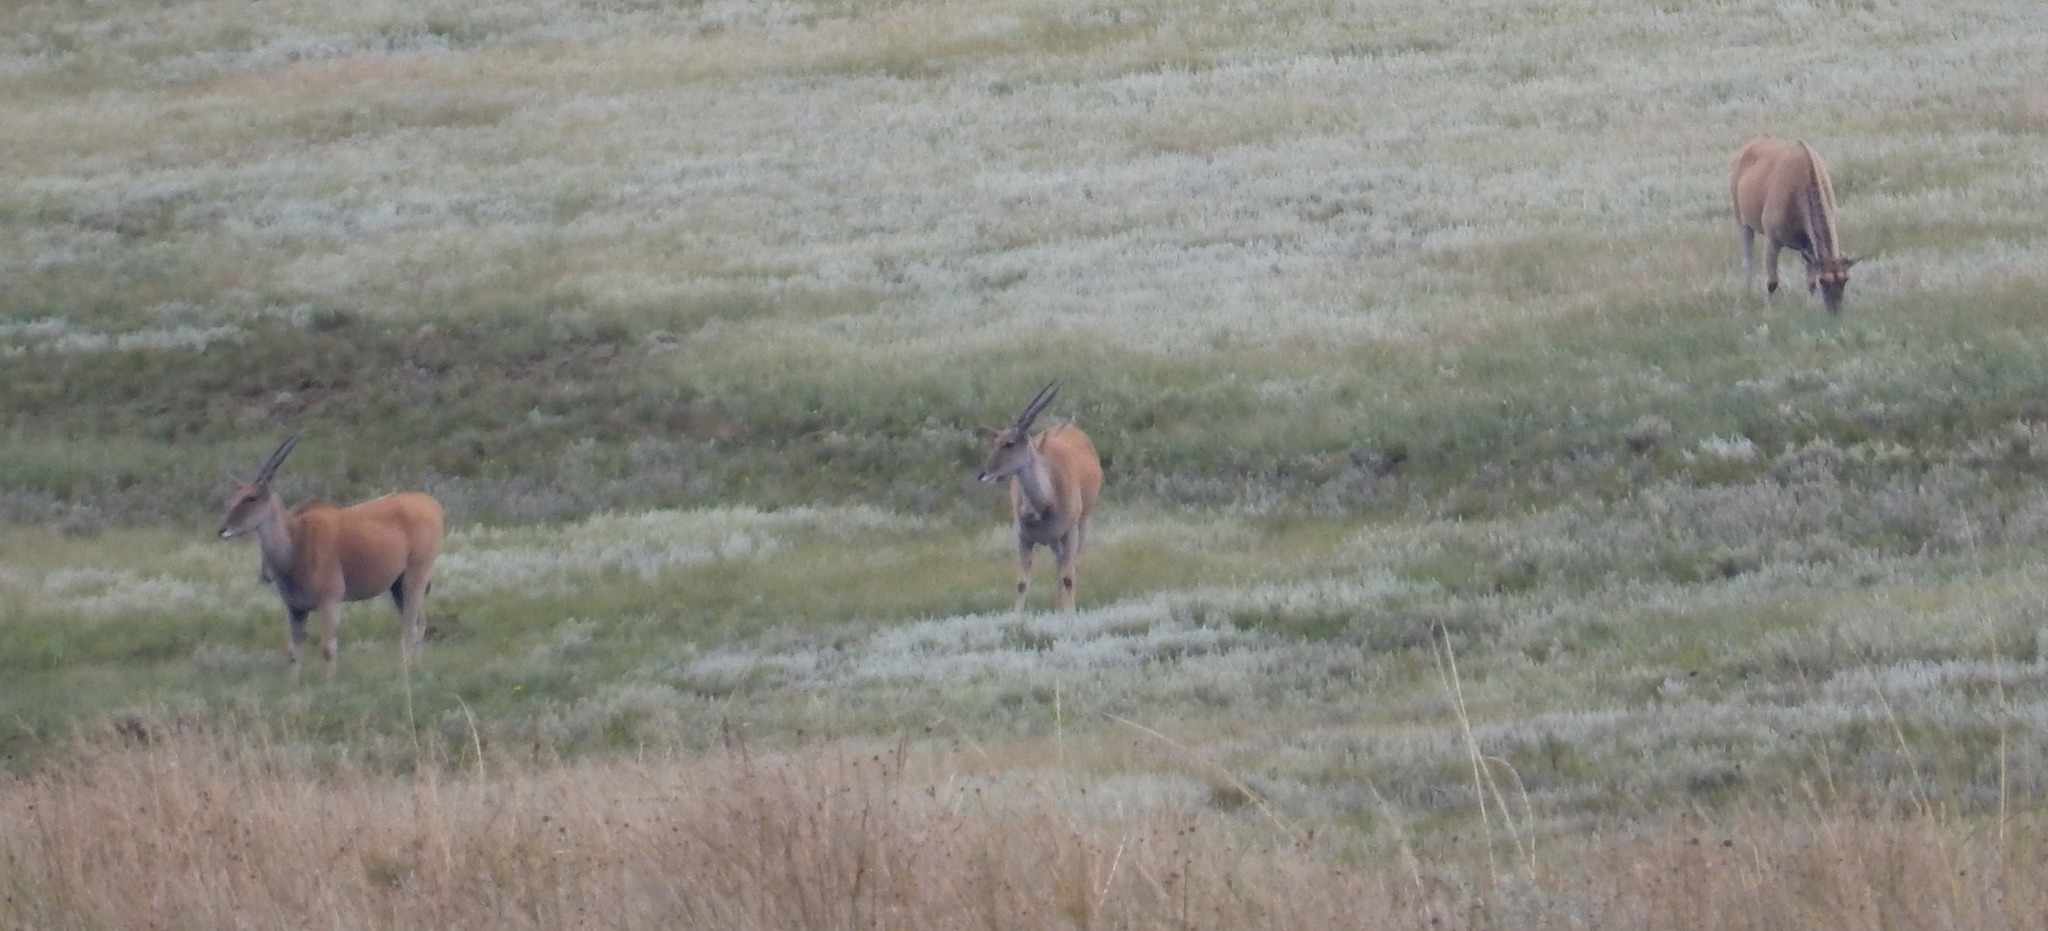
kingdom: Animalia
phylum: Chordata
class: Mammalia
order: Artiodactyla
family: Bovidae
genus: Taurotragus
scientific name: Taurotragus oryx
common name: Common eland
